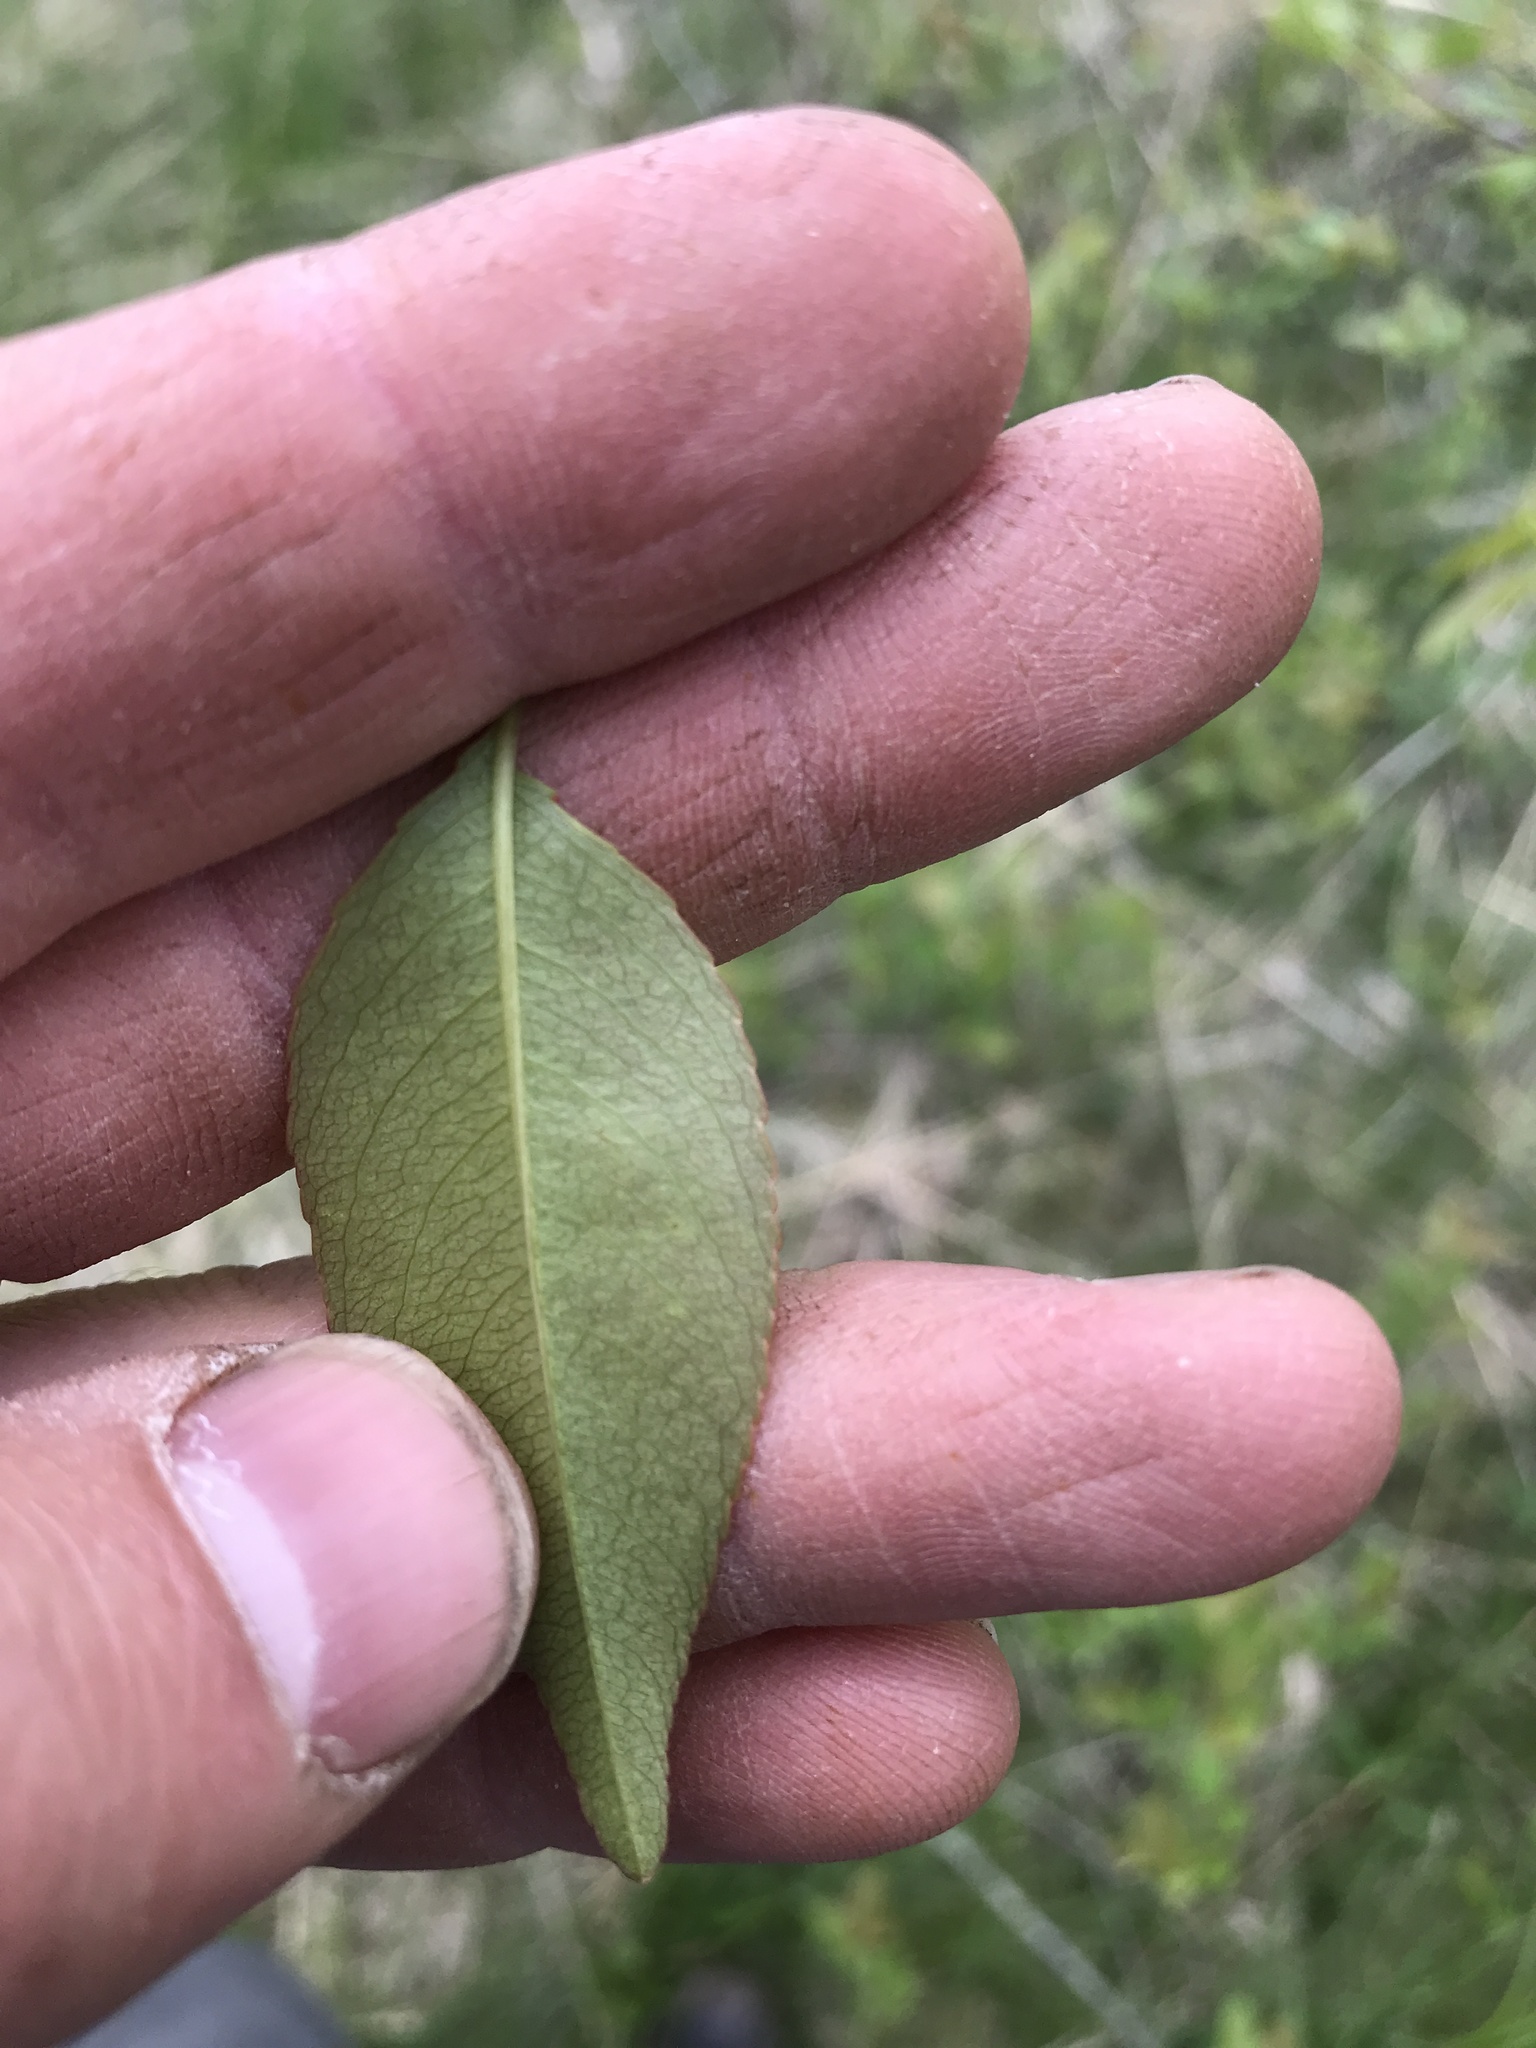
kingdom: Plantae
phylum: Tracheophyta
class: Magnoliopsida
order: Rosales
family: Rosaceae
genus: Prunus
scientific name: Prunus serotina
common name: Black cherry
